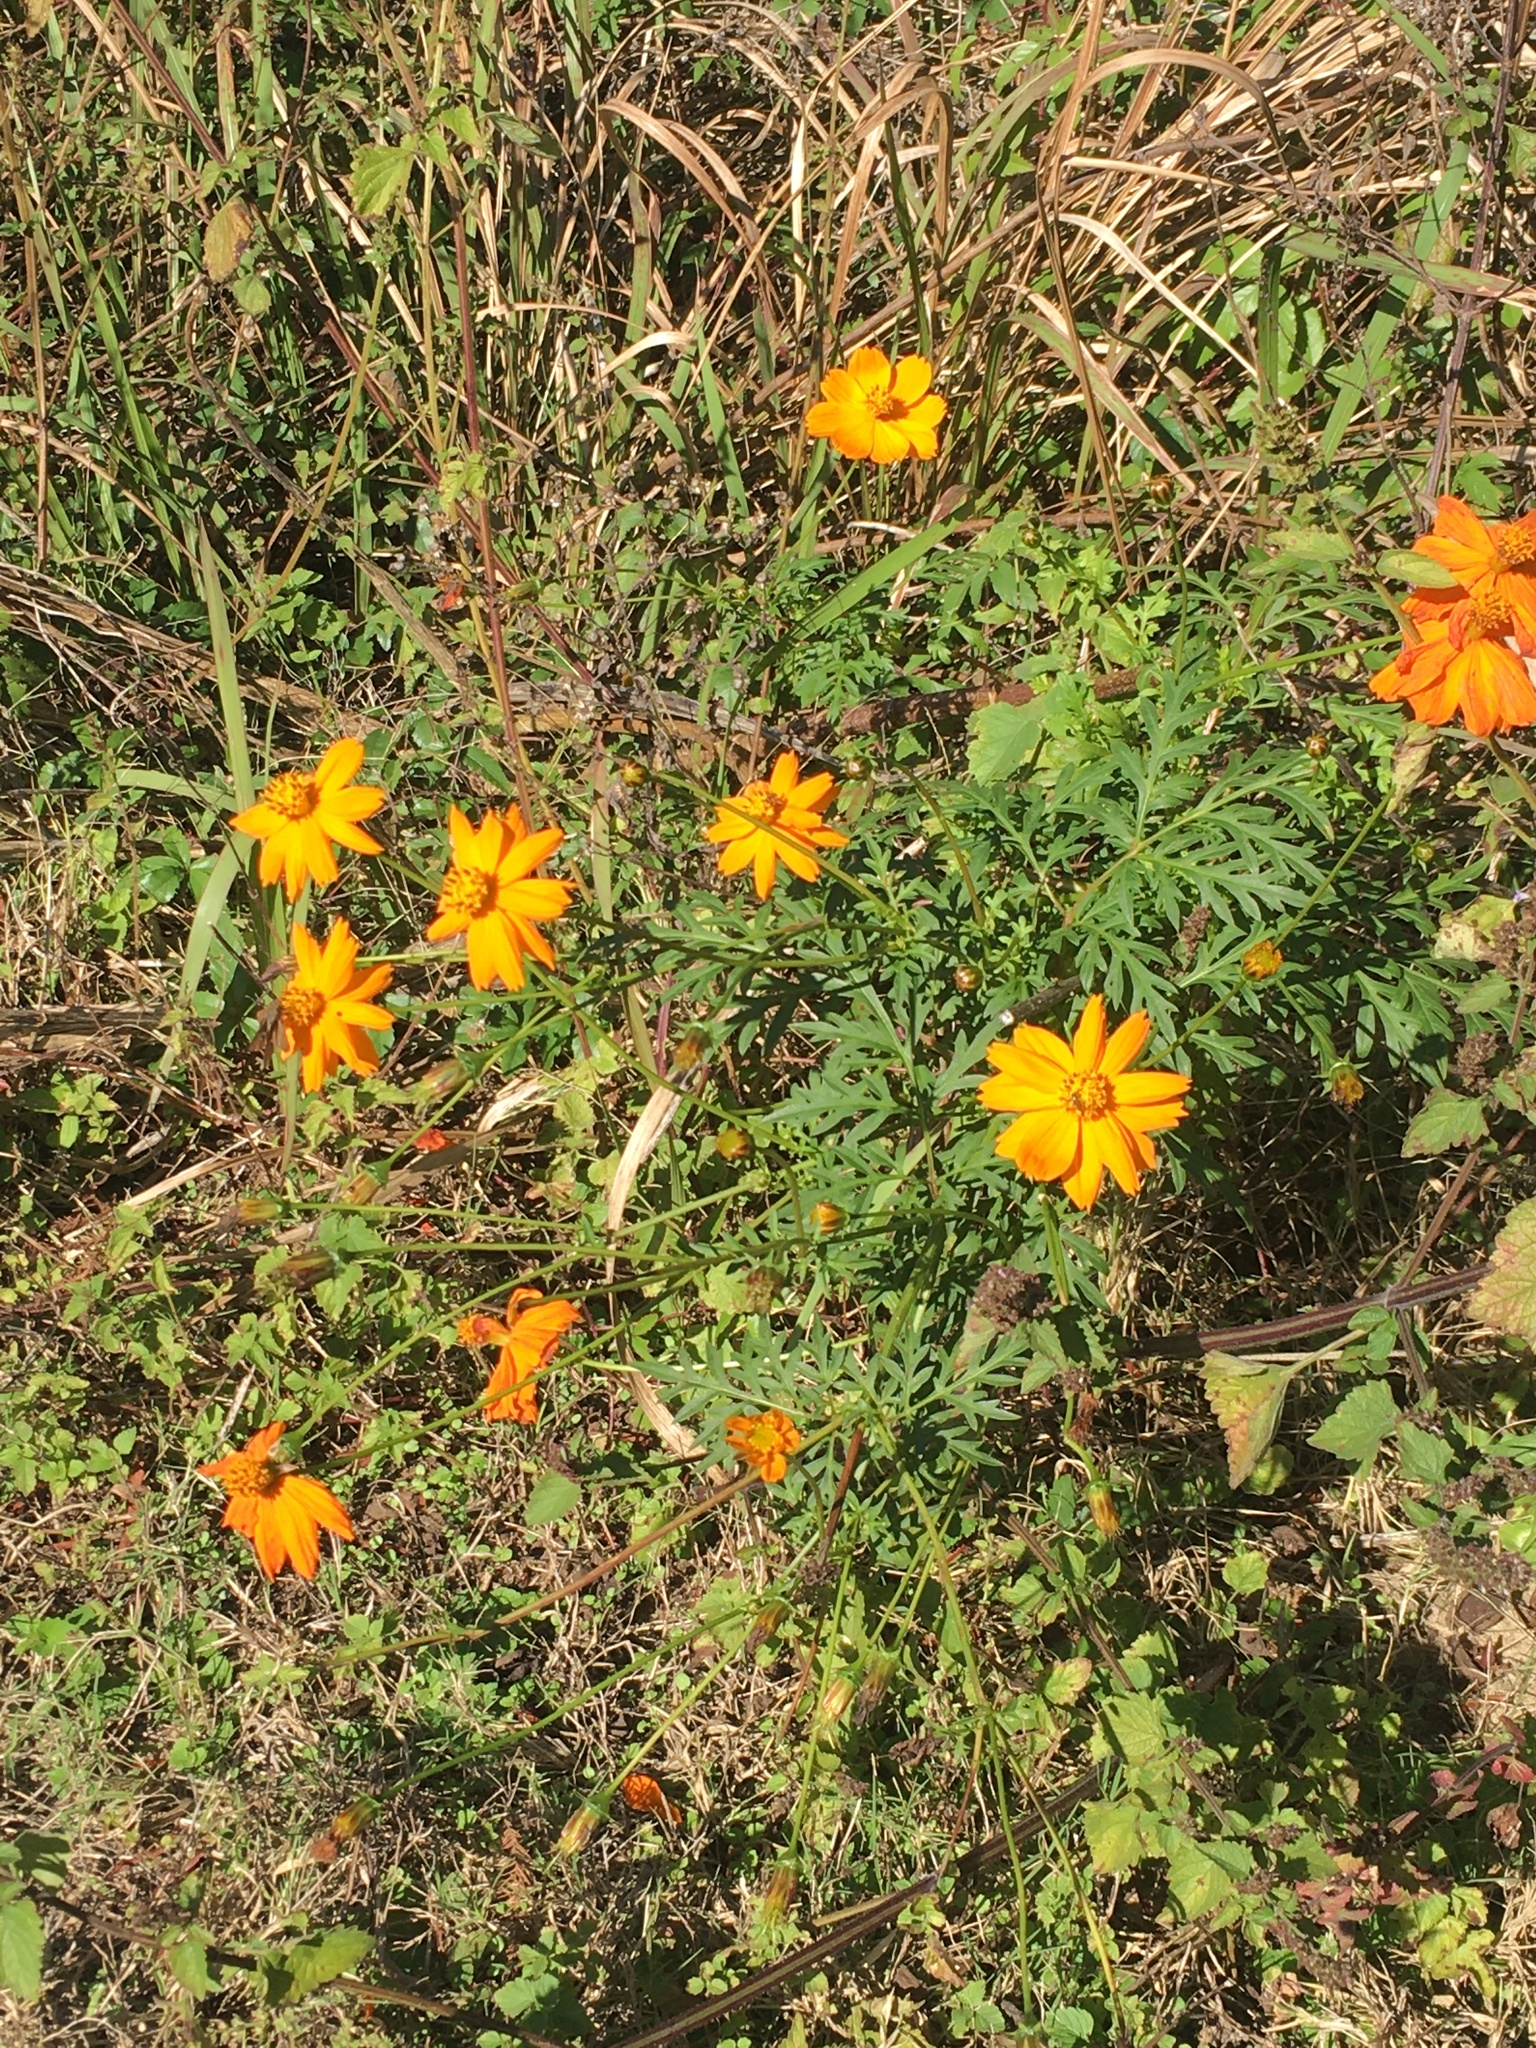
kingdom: Plantae
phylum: Tracheophyta
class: Magnoliopsida
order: Asterales
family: Asteraceae
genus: Cosmos
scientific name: Cosmos sulphureus
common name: Sulphur cosmos
